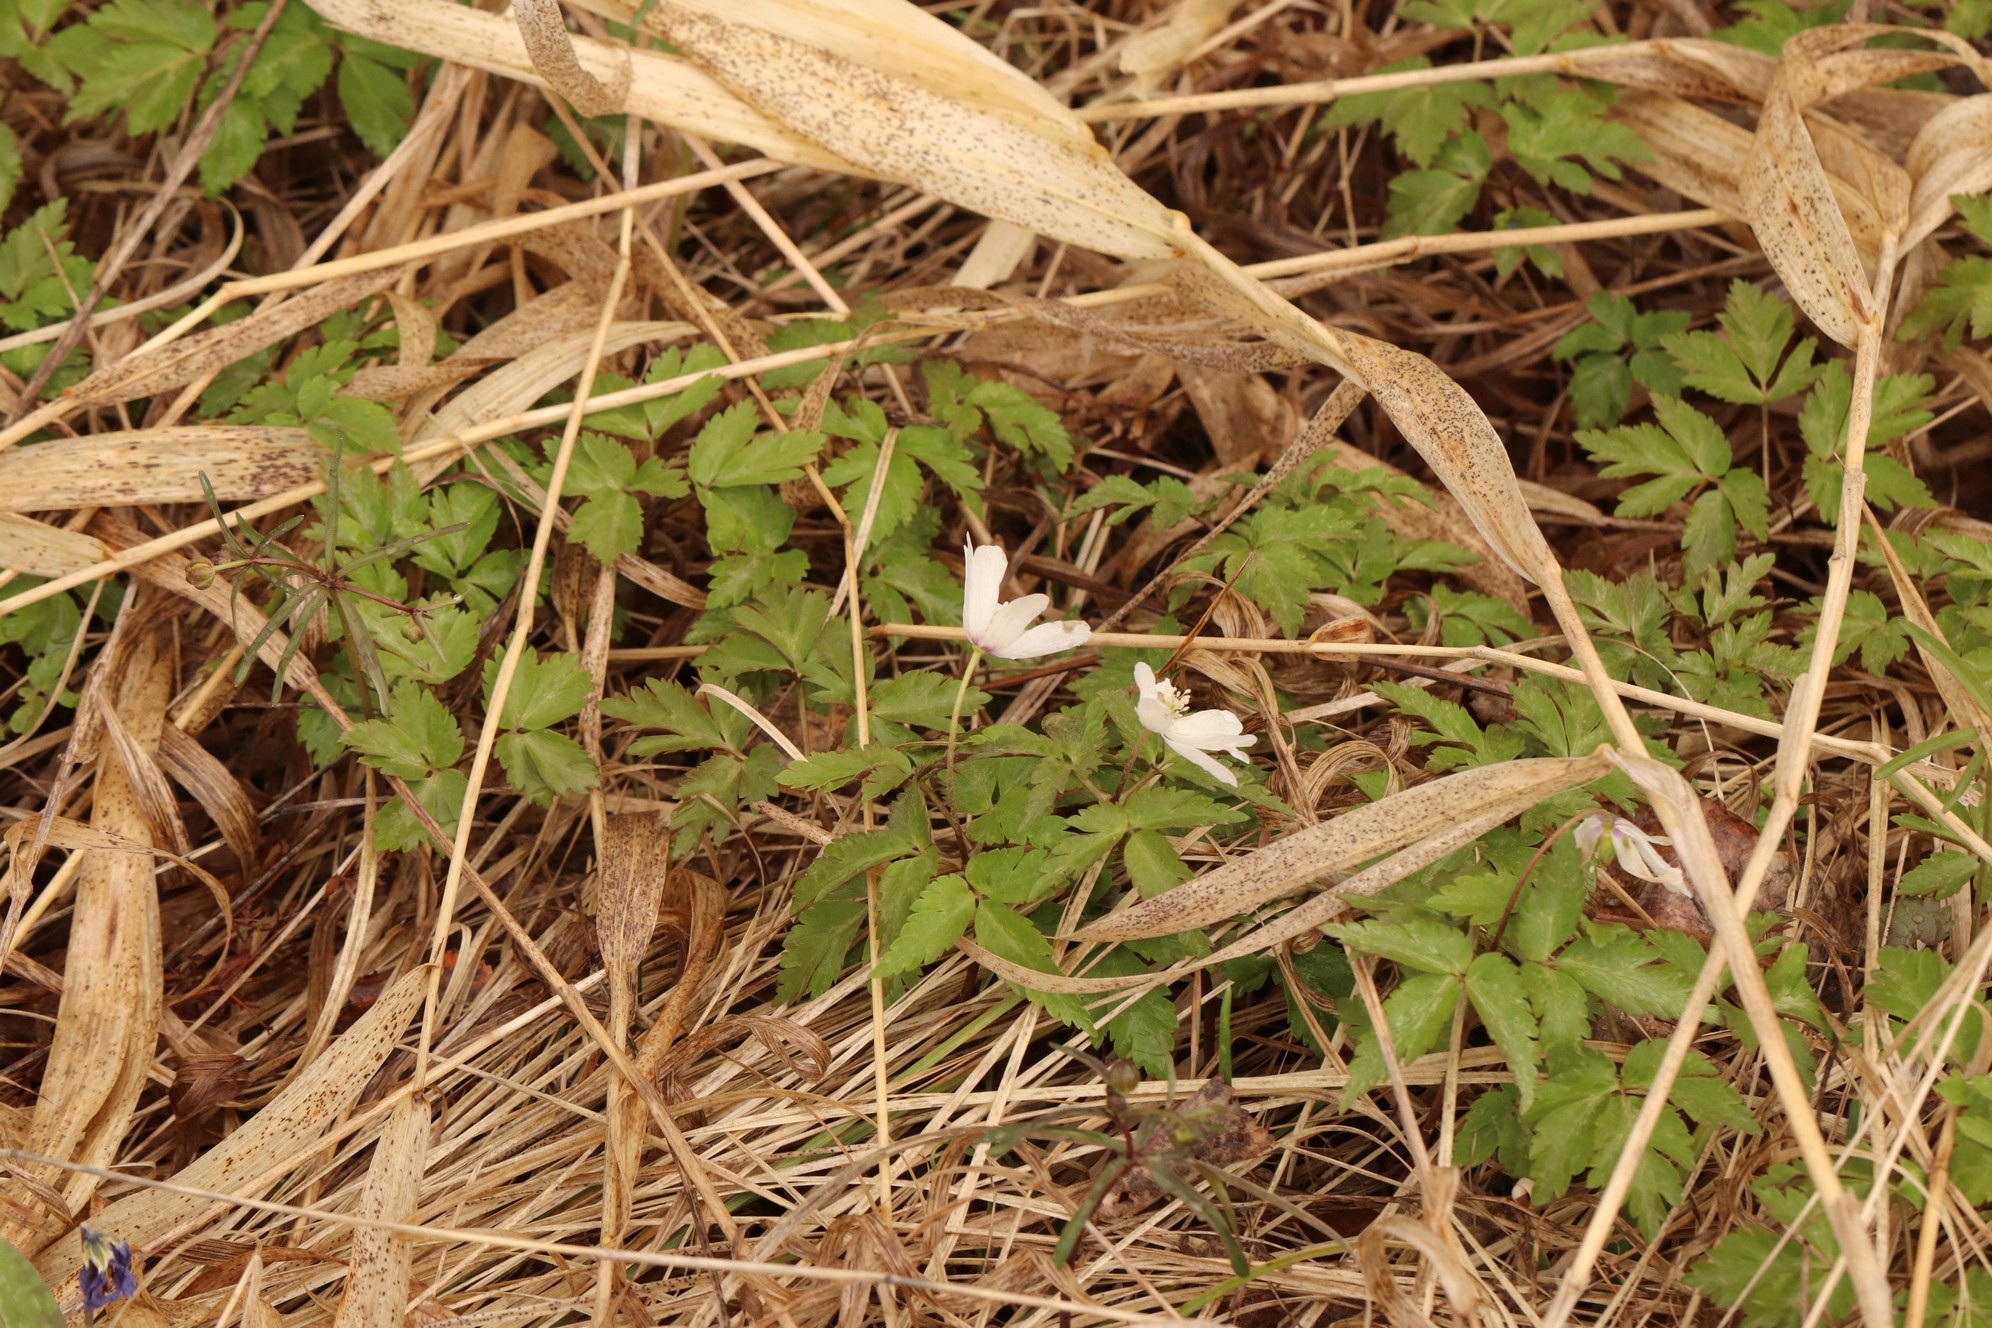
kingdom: Plantae
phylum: Tracheophyta
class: Magnoliopsida
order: Ranunculales
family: Ranunculaceae
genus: Anemone
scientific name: Anemone altaica
